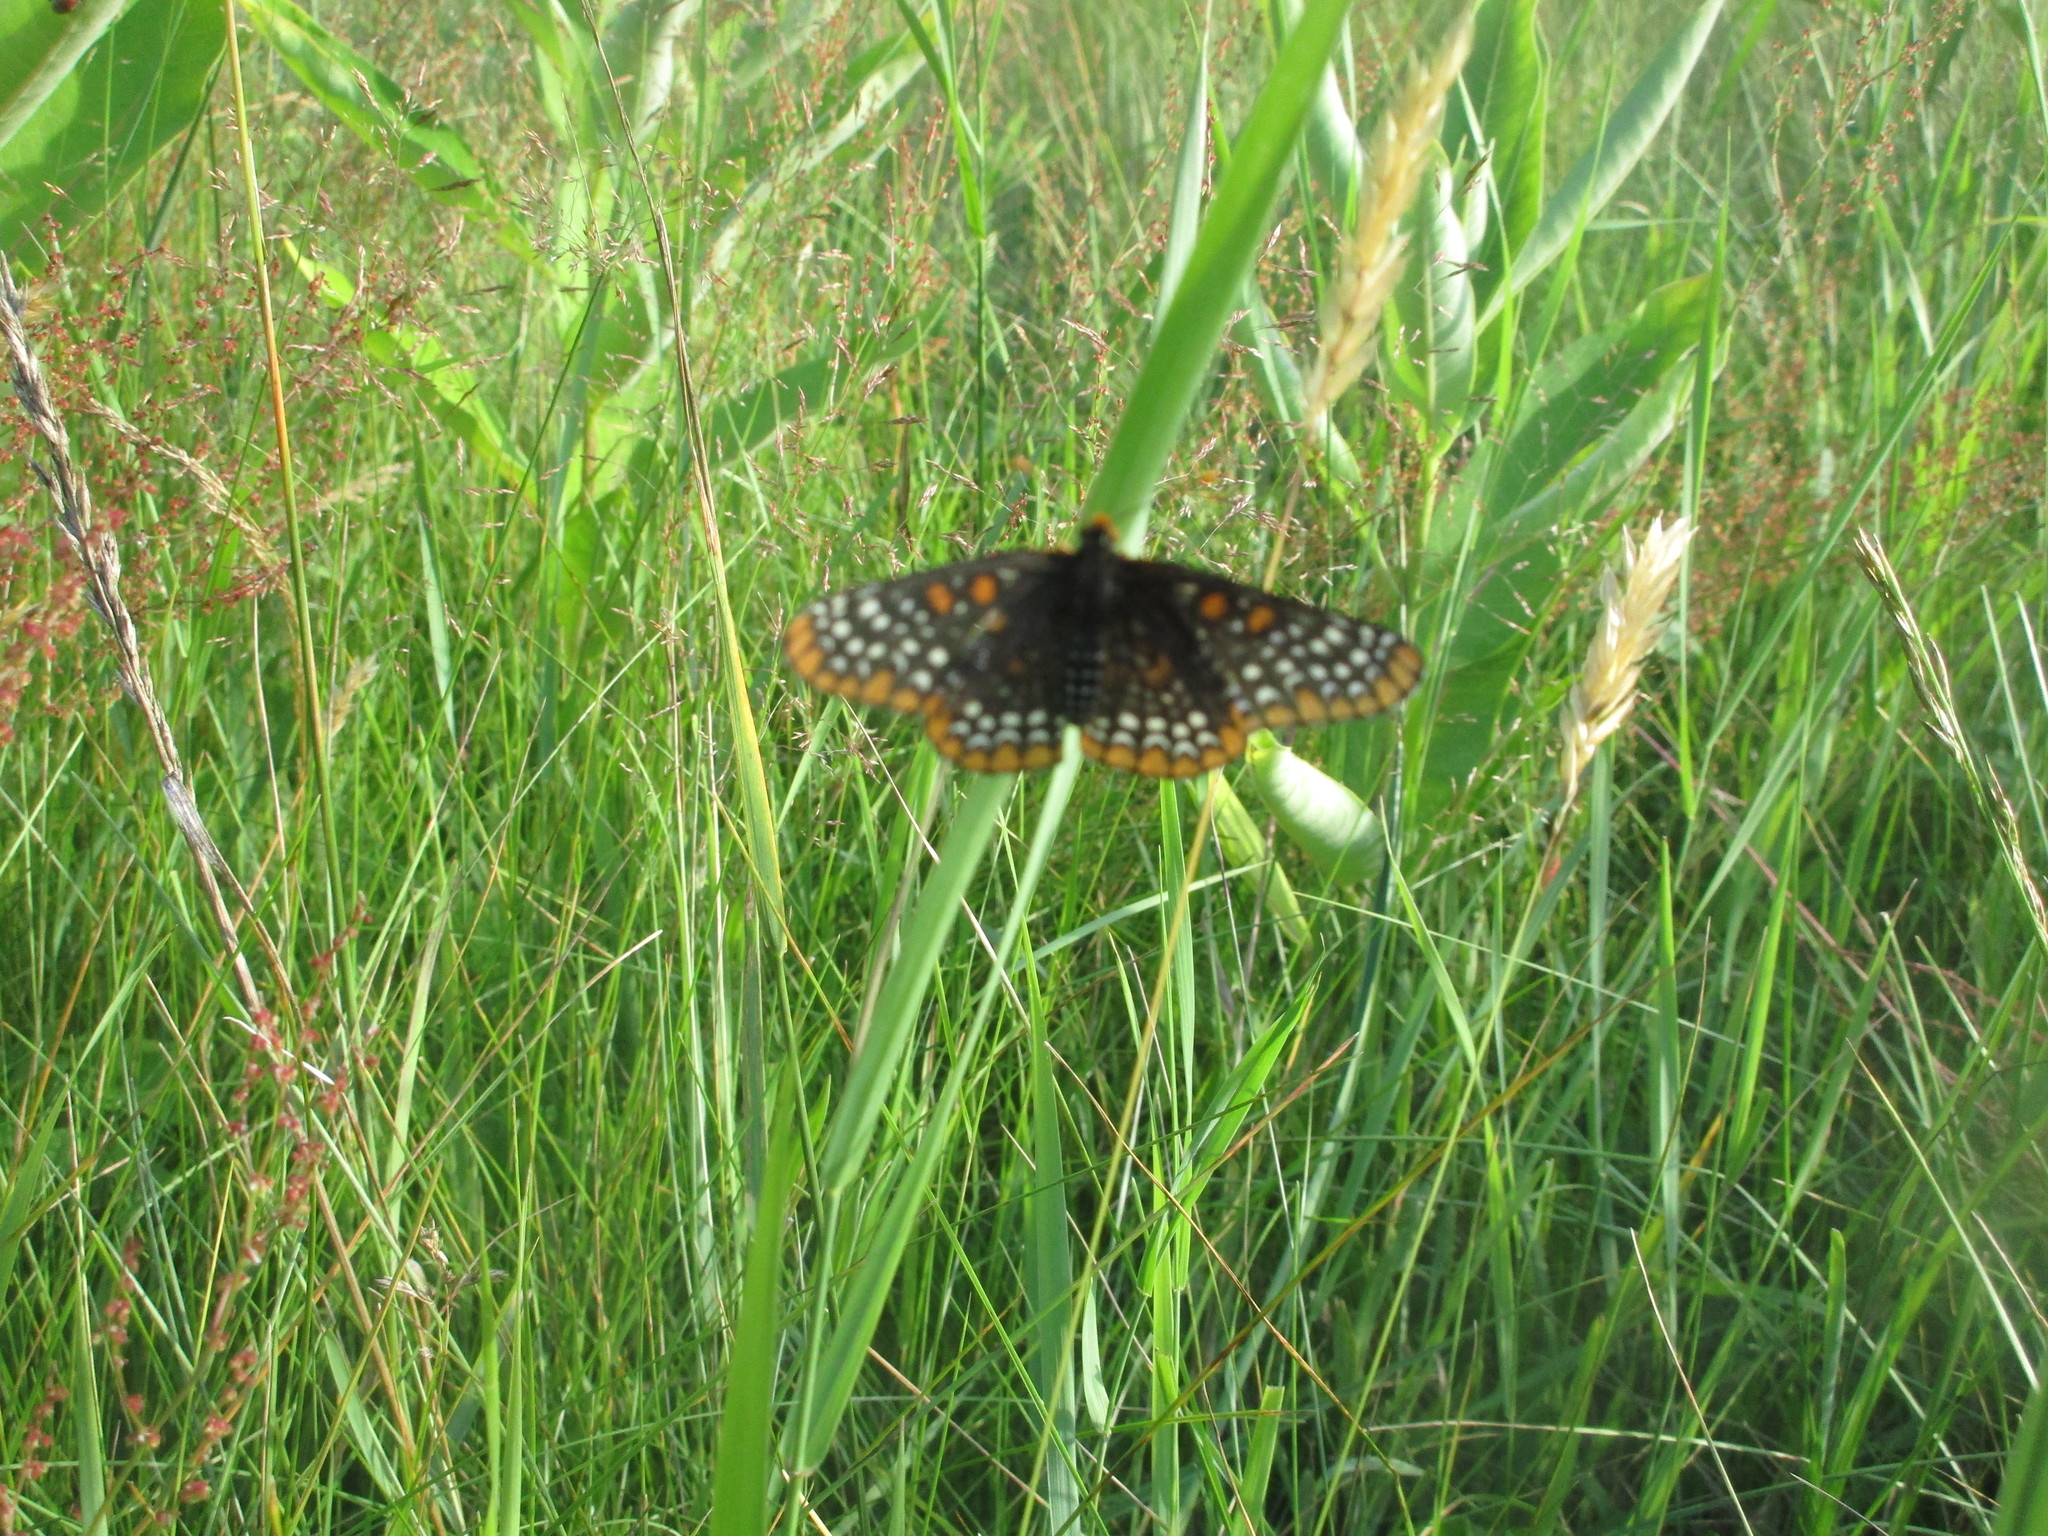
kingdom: Animalia
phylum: Arthropoda
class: Insecta
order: Lepidoptera
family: Nymphalidae
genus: Euphydryas
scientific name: Euphydryas phaeton
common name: Baltimore checkerspot
